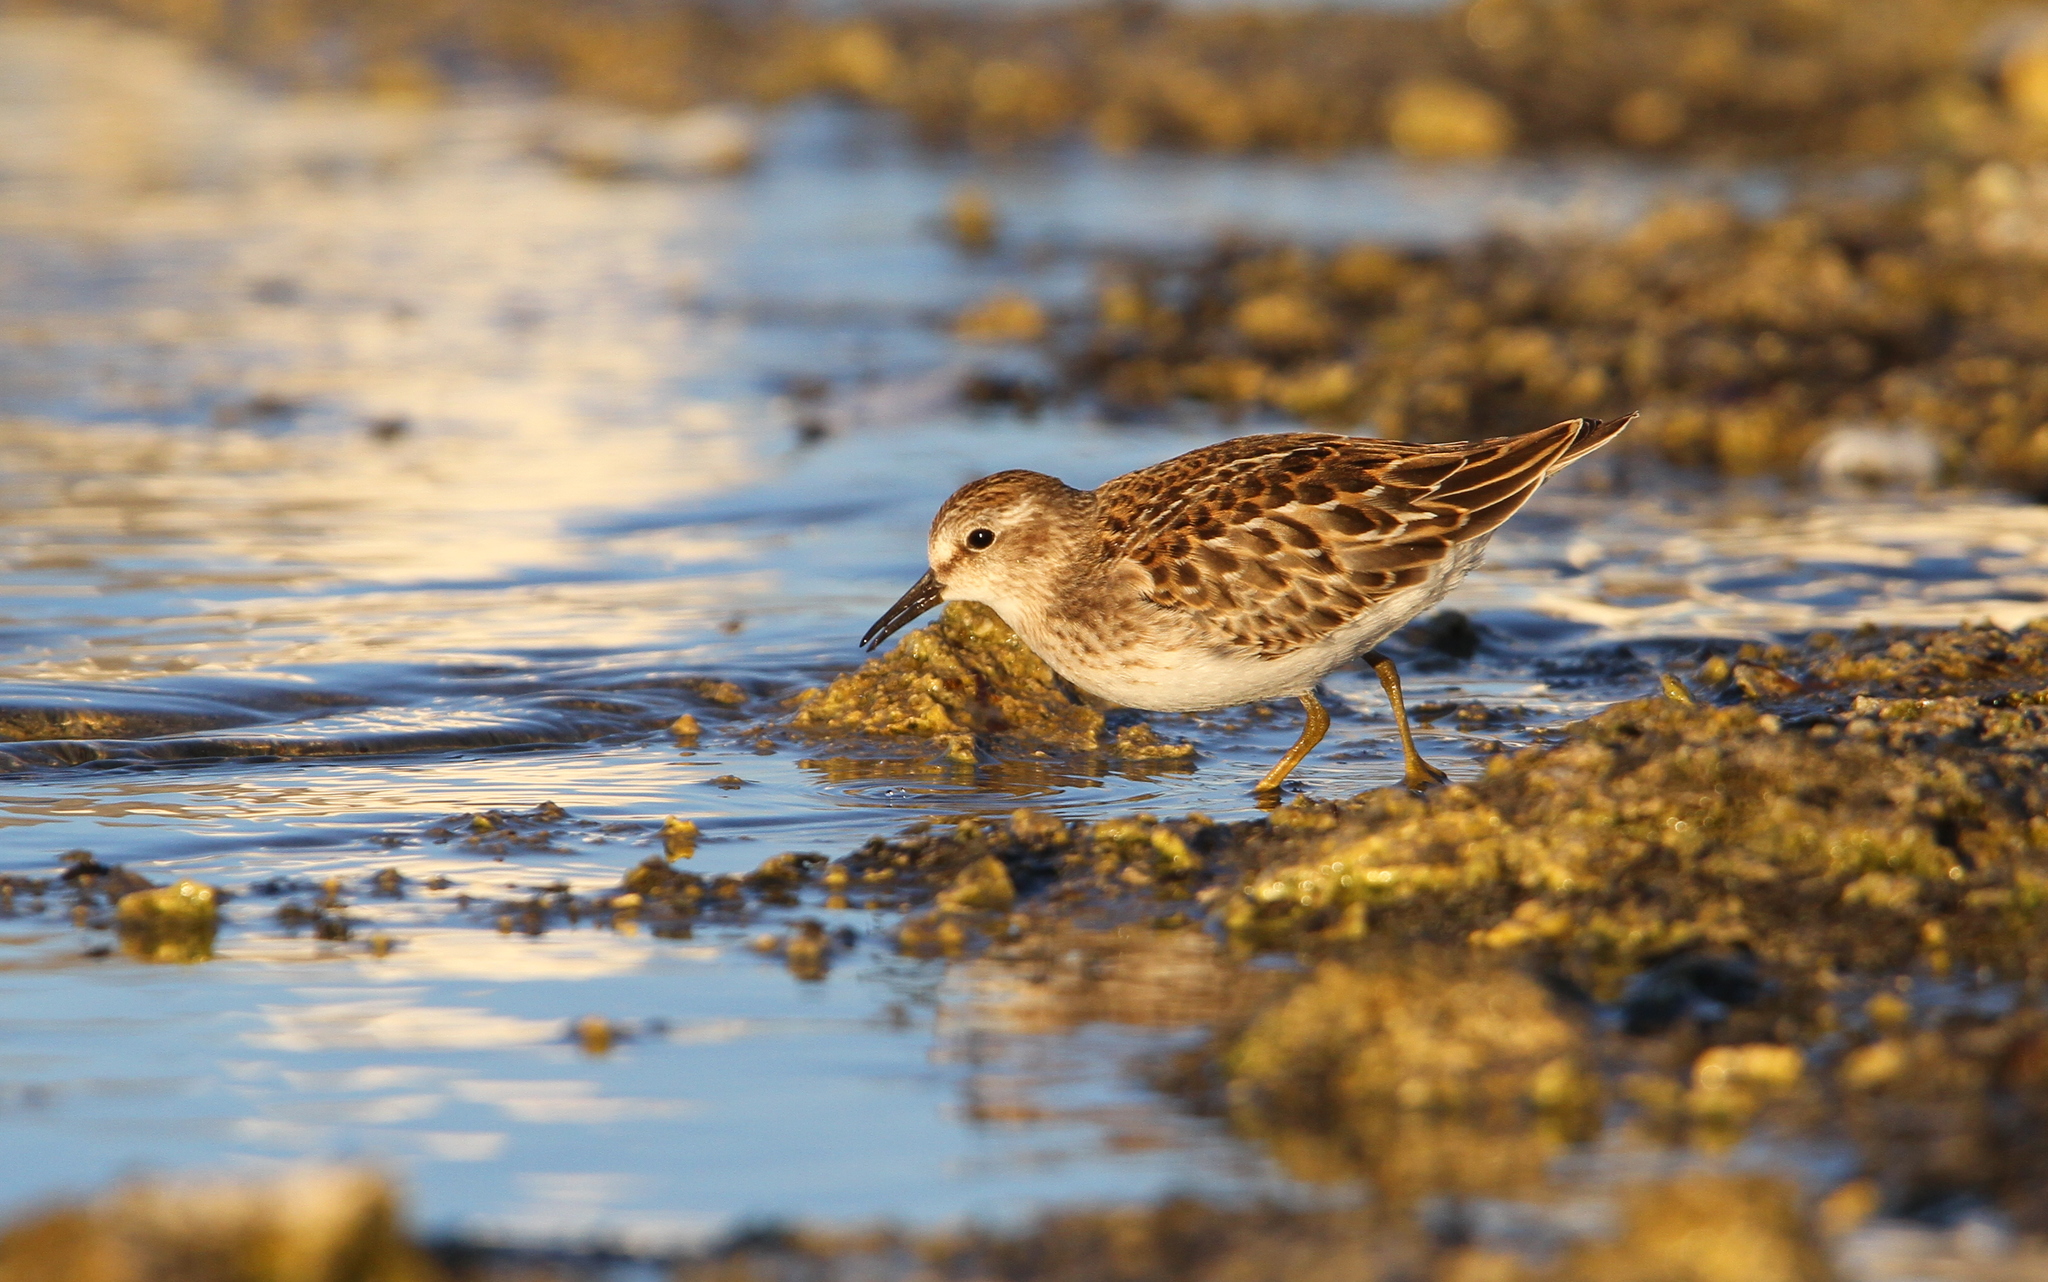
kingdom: Animalia
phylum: Chordata
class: Aves
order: Charadriiformes
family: Scolopacidae
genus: Calidris
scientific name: Calidris minutilla
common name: Least sandpiper
